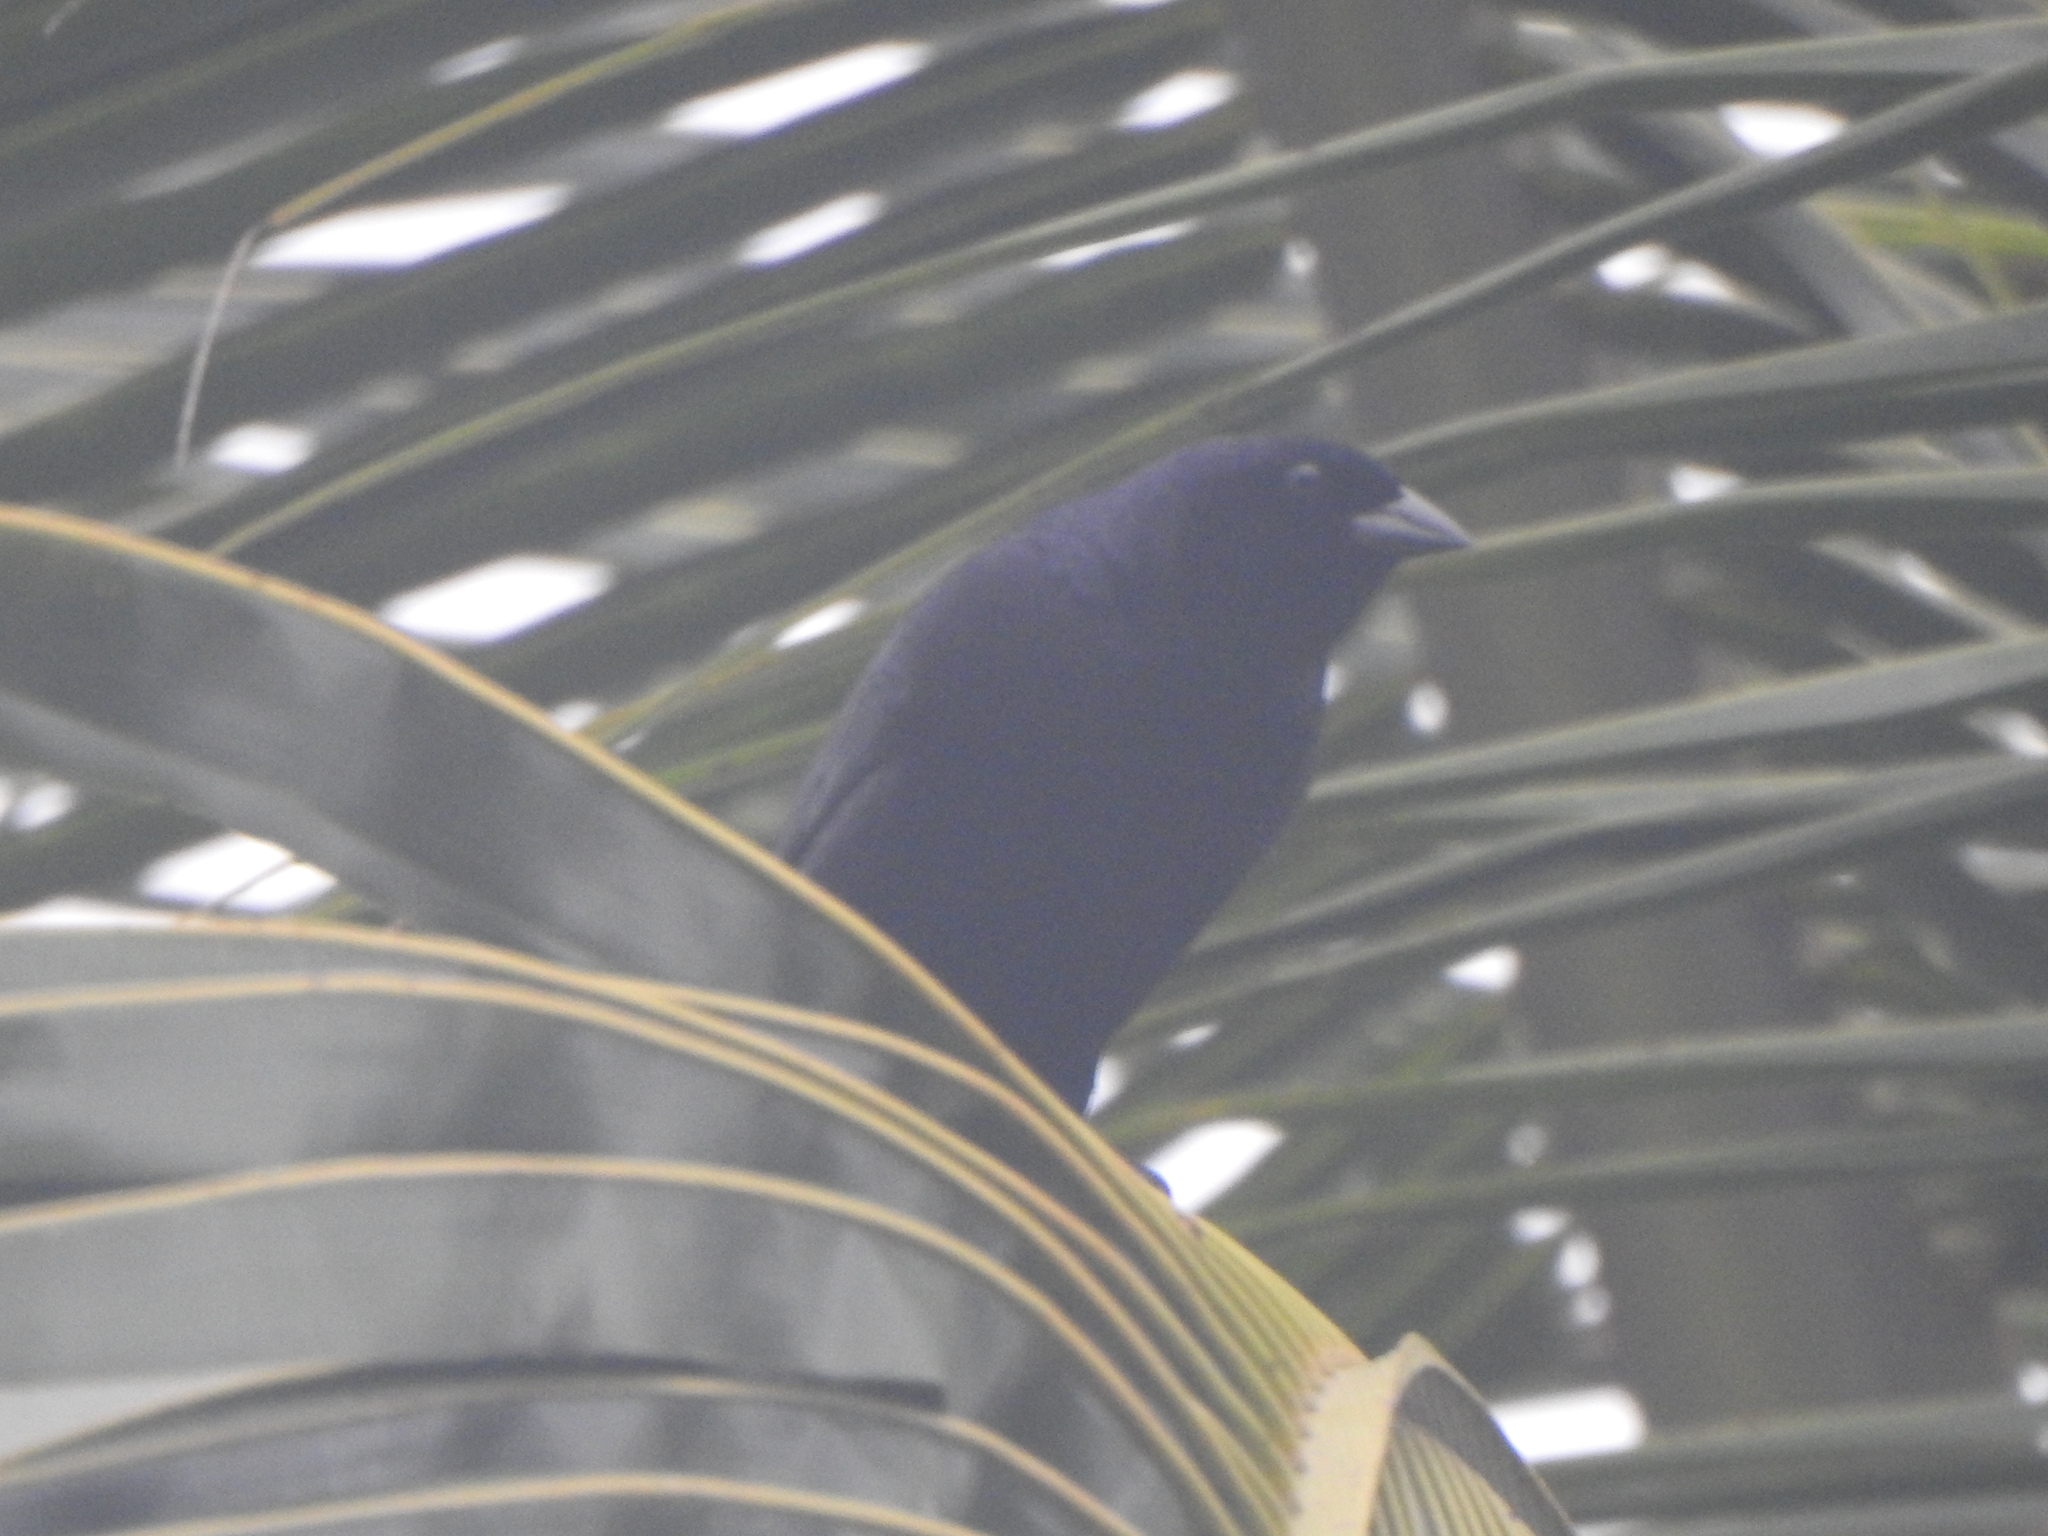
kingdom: Animalia
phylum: Chordata
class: Aves
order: Passeriformes
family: Icteridae
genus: Molothrus
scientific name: Molothrus bonariensis
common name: Shiny cowbird
